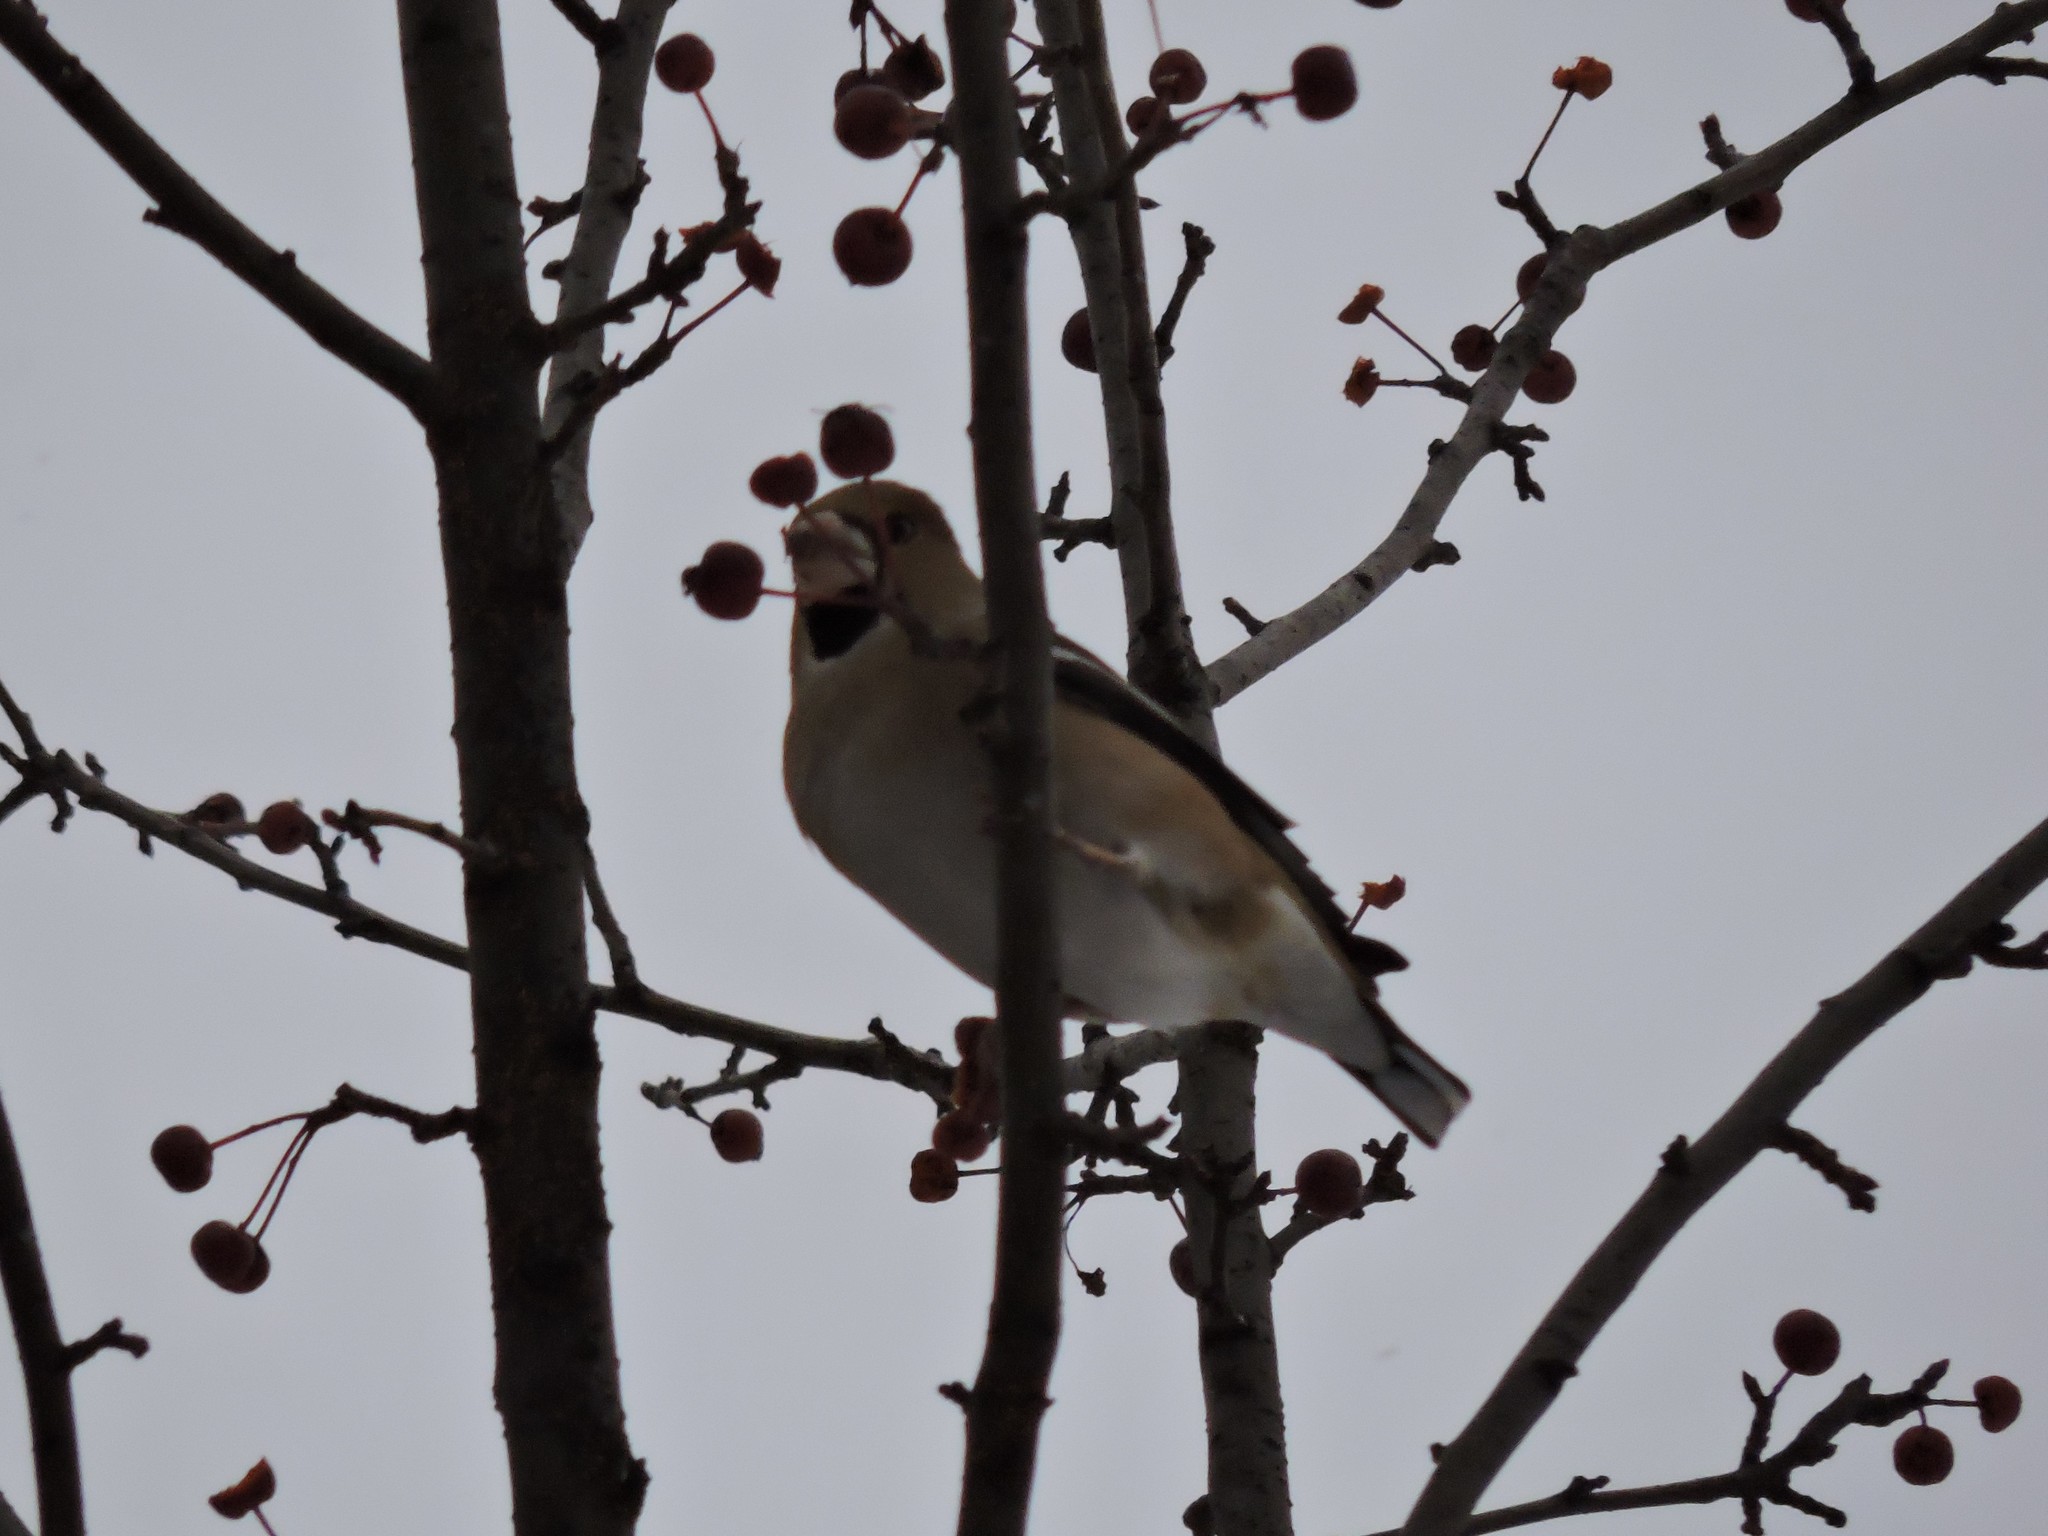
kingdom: Animalia
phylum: Chordata
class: Aves
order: Passeriformes
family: Fringillidae
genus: Coccothraustes
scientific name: Coccothraustes coccothraustes
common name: Hawfinch
